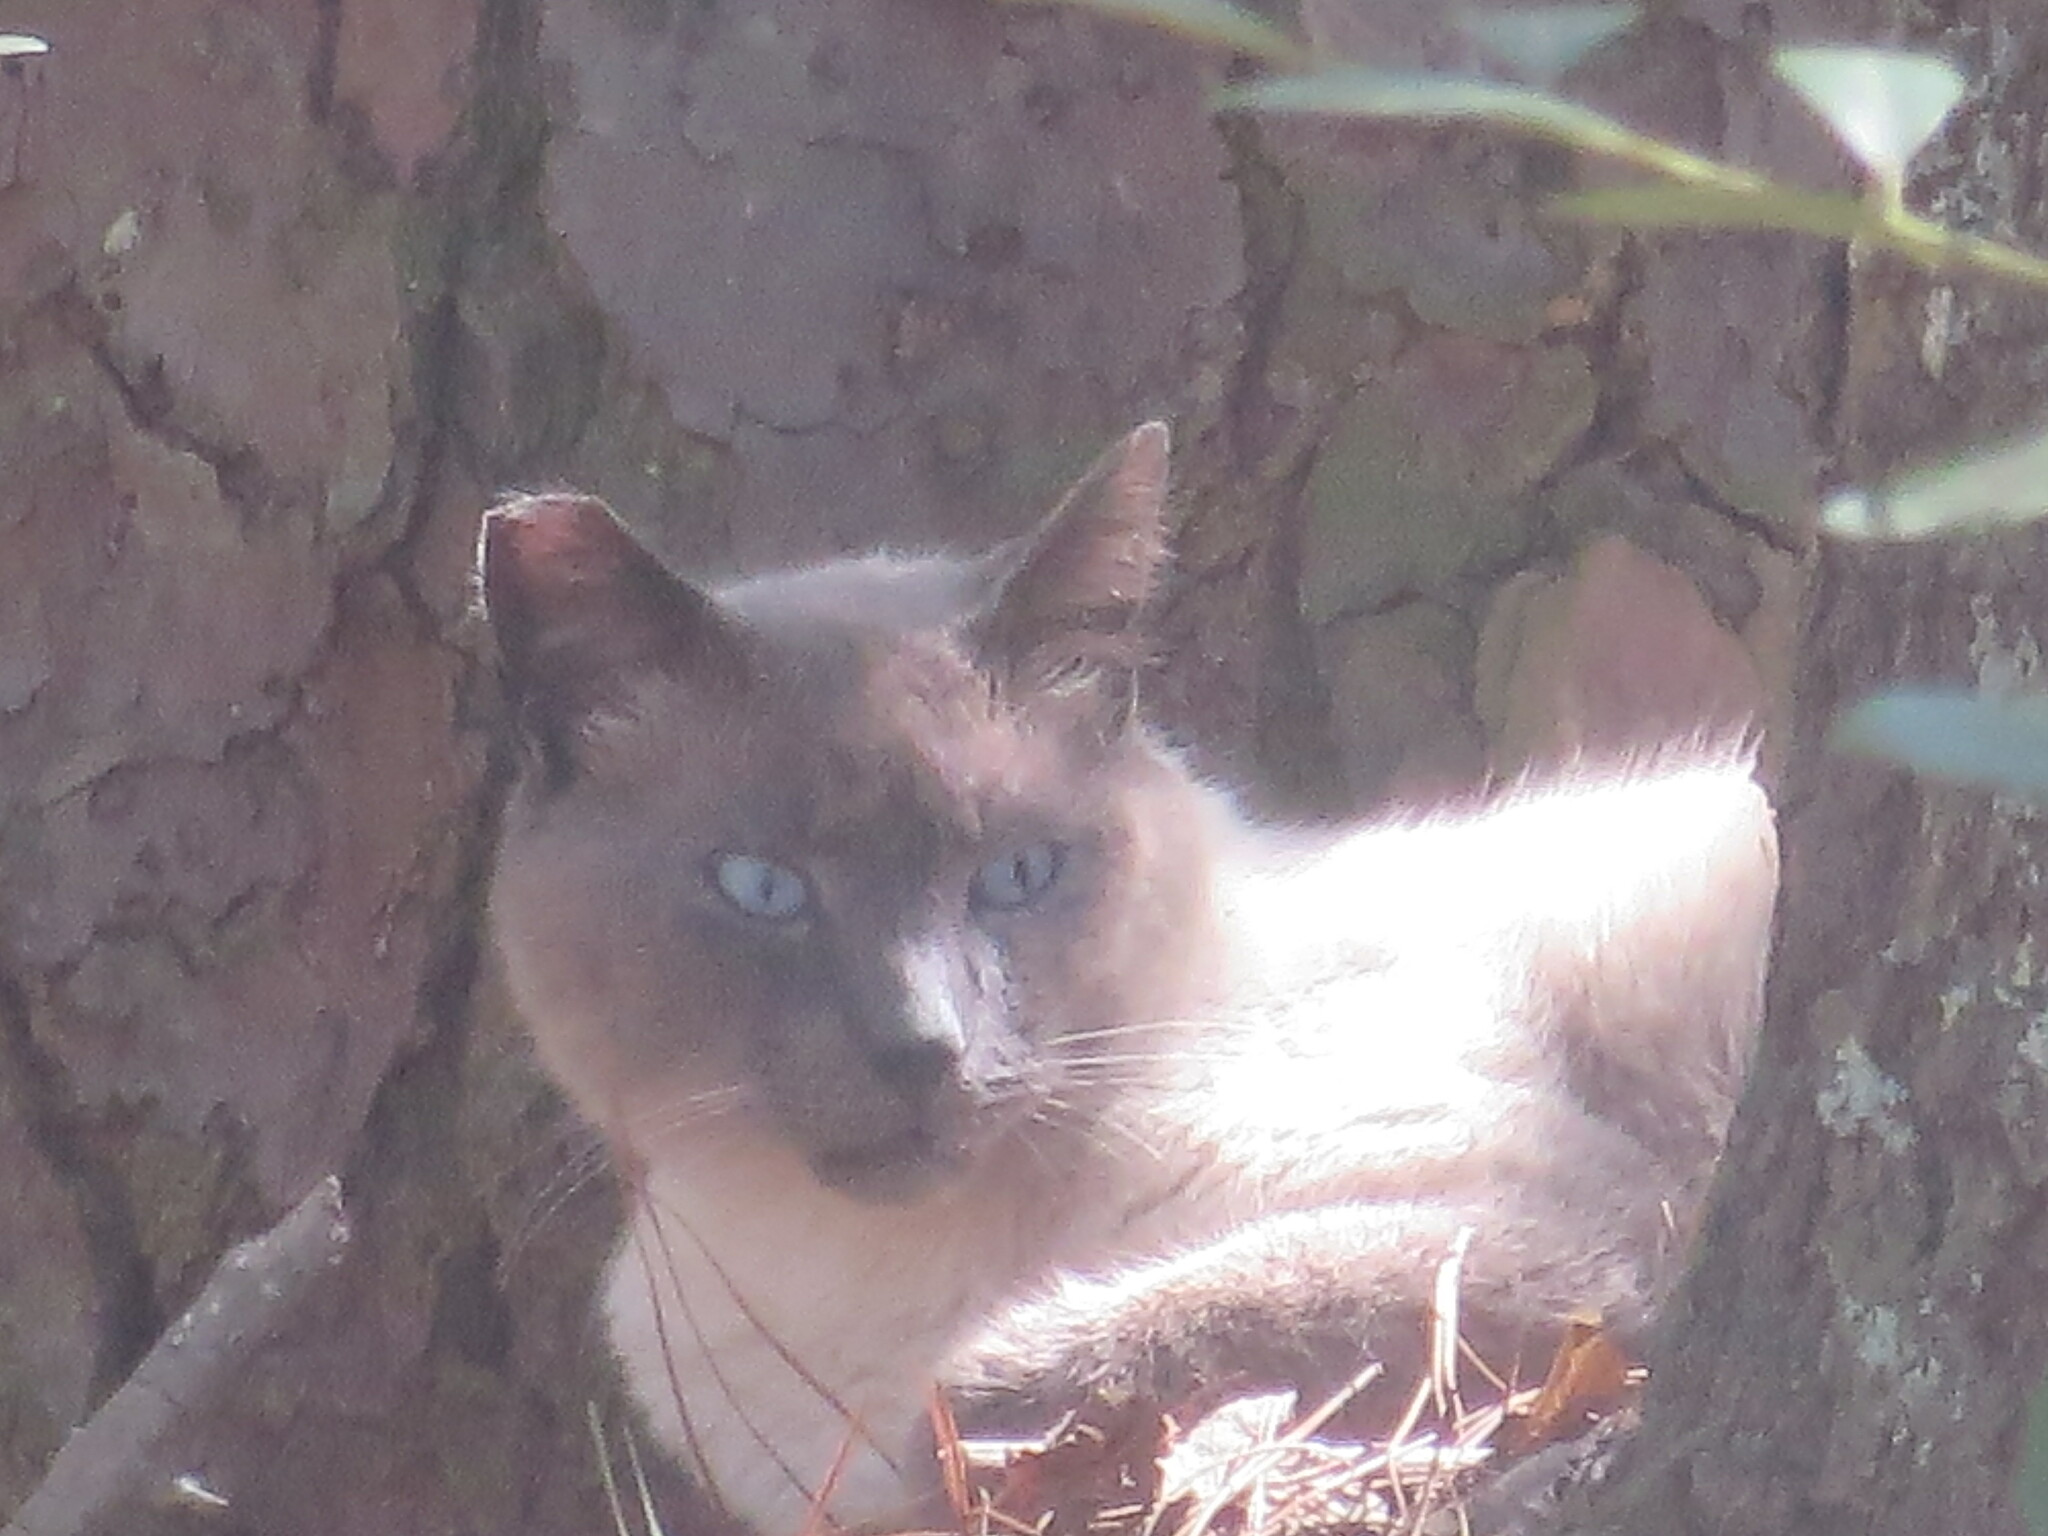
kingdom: Animalia
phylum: Chordata
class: Mammalia
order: Carnivora
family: Felidae
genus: Felis
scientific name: Felis catus
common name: Domestic cat
